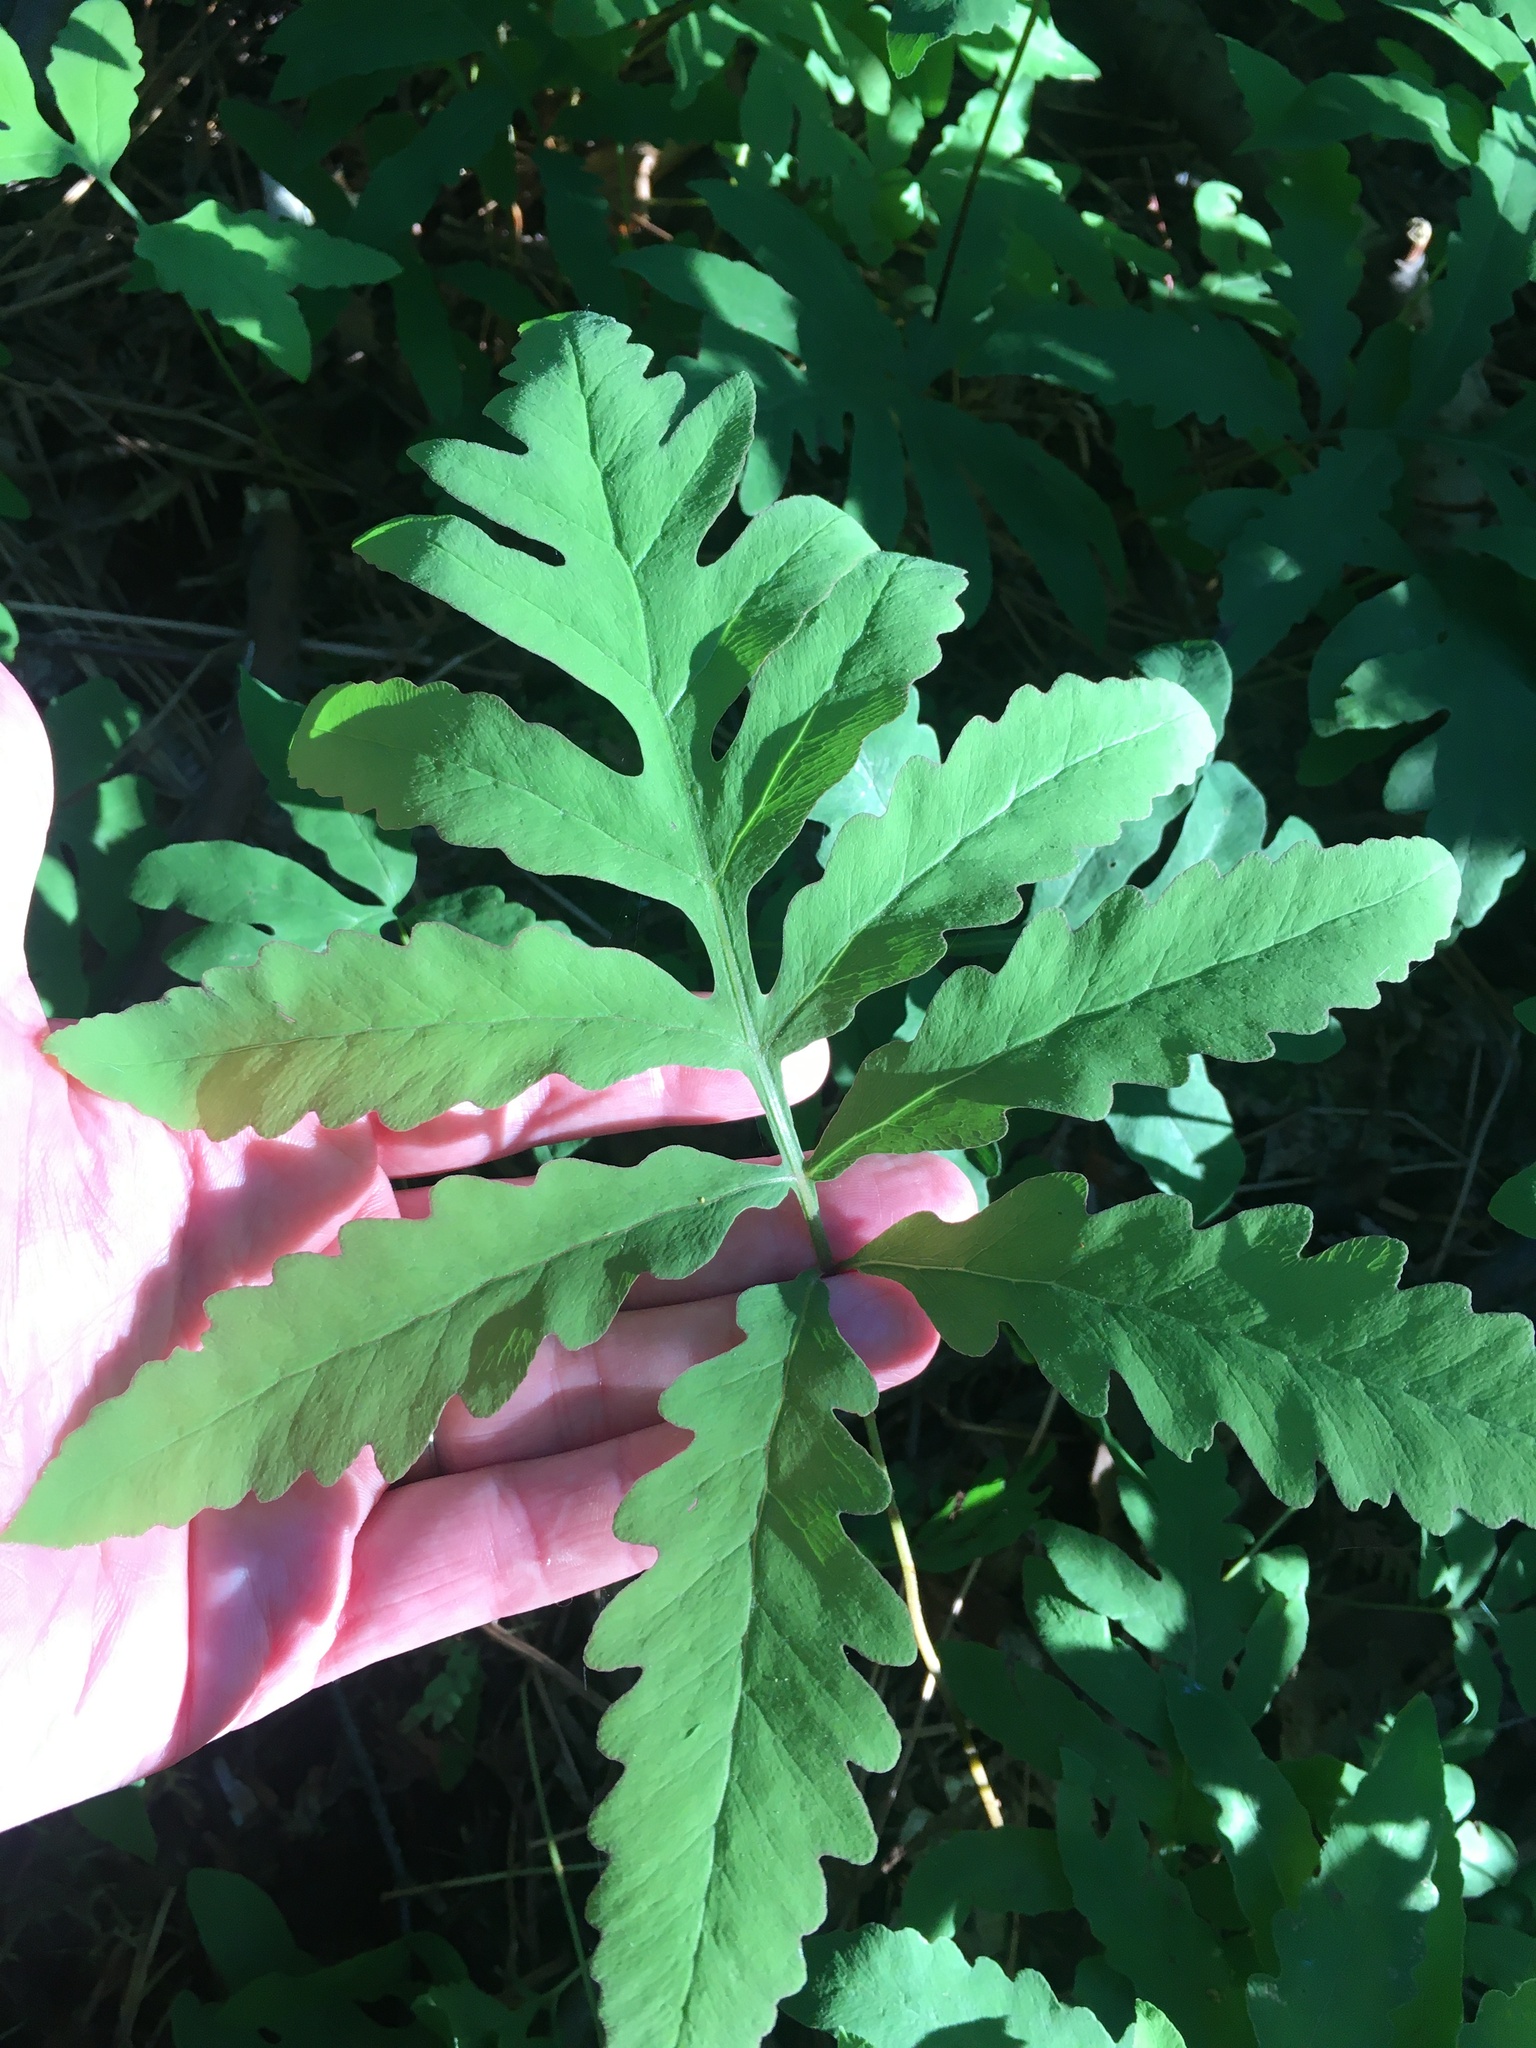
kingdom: Plantae
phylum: Tracheophyta
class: Polypodiopsida
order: Polypodiales
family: Onocleaceae
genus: Onoclea
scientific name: Onoclea sensibilis
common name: Sensitive fern
